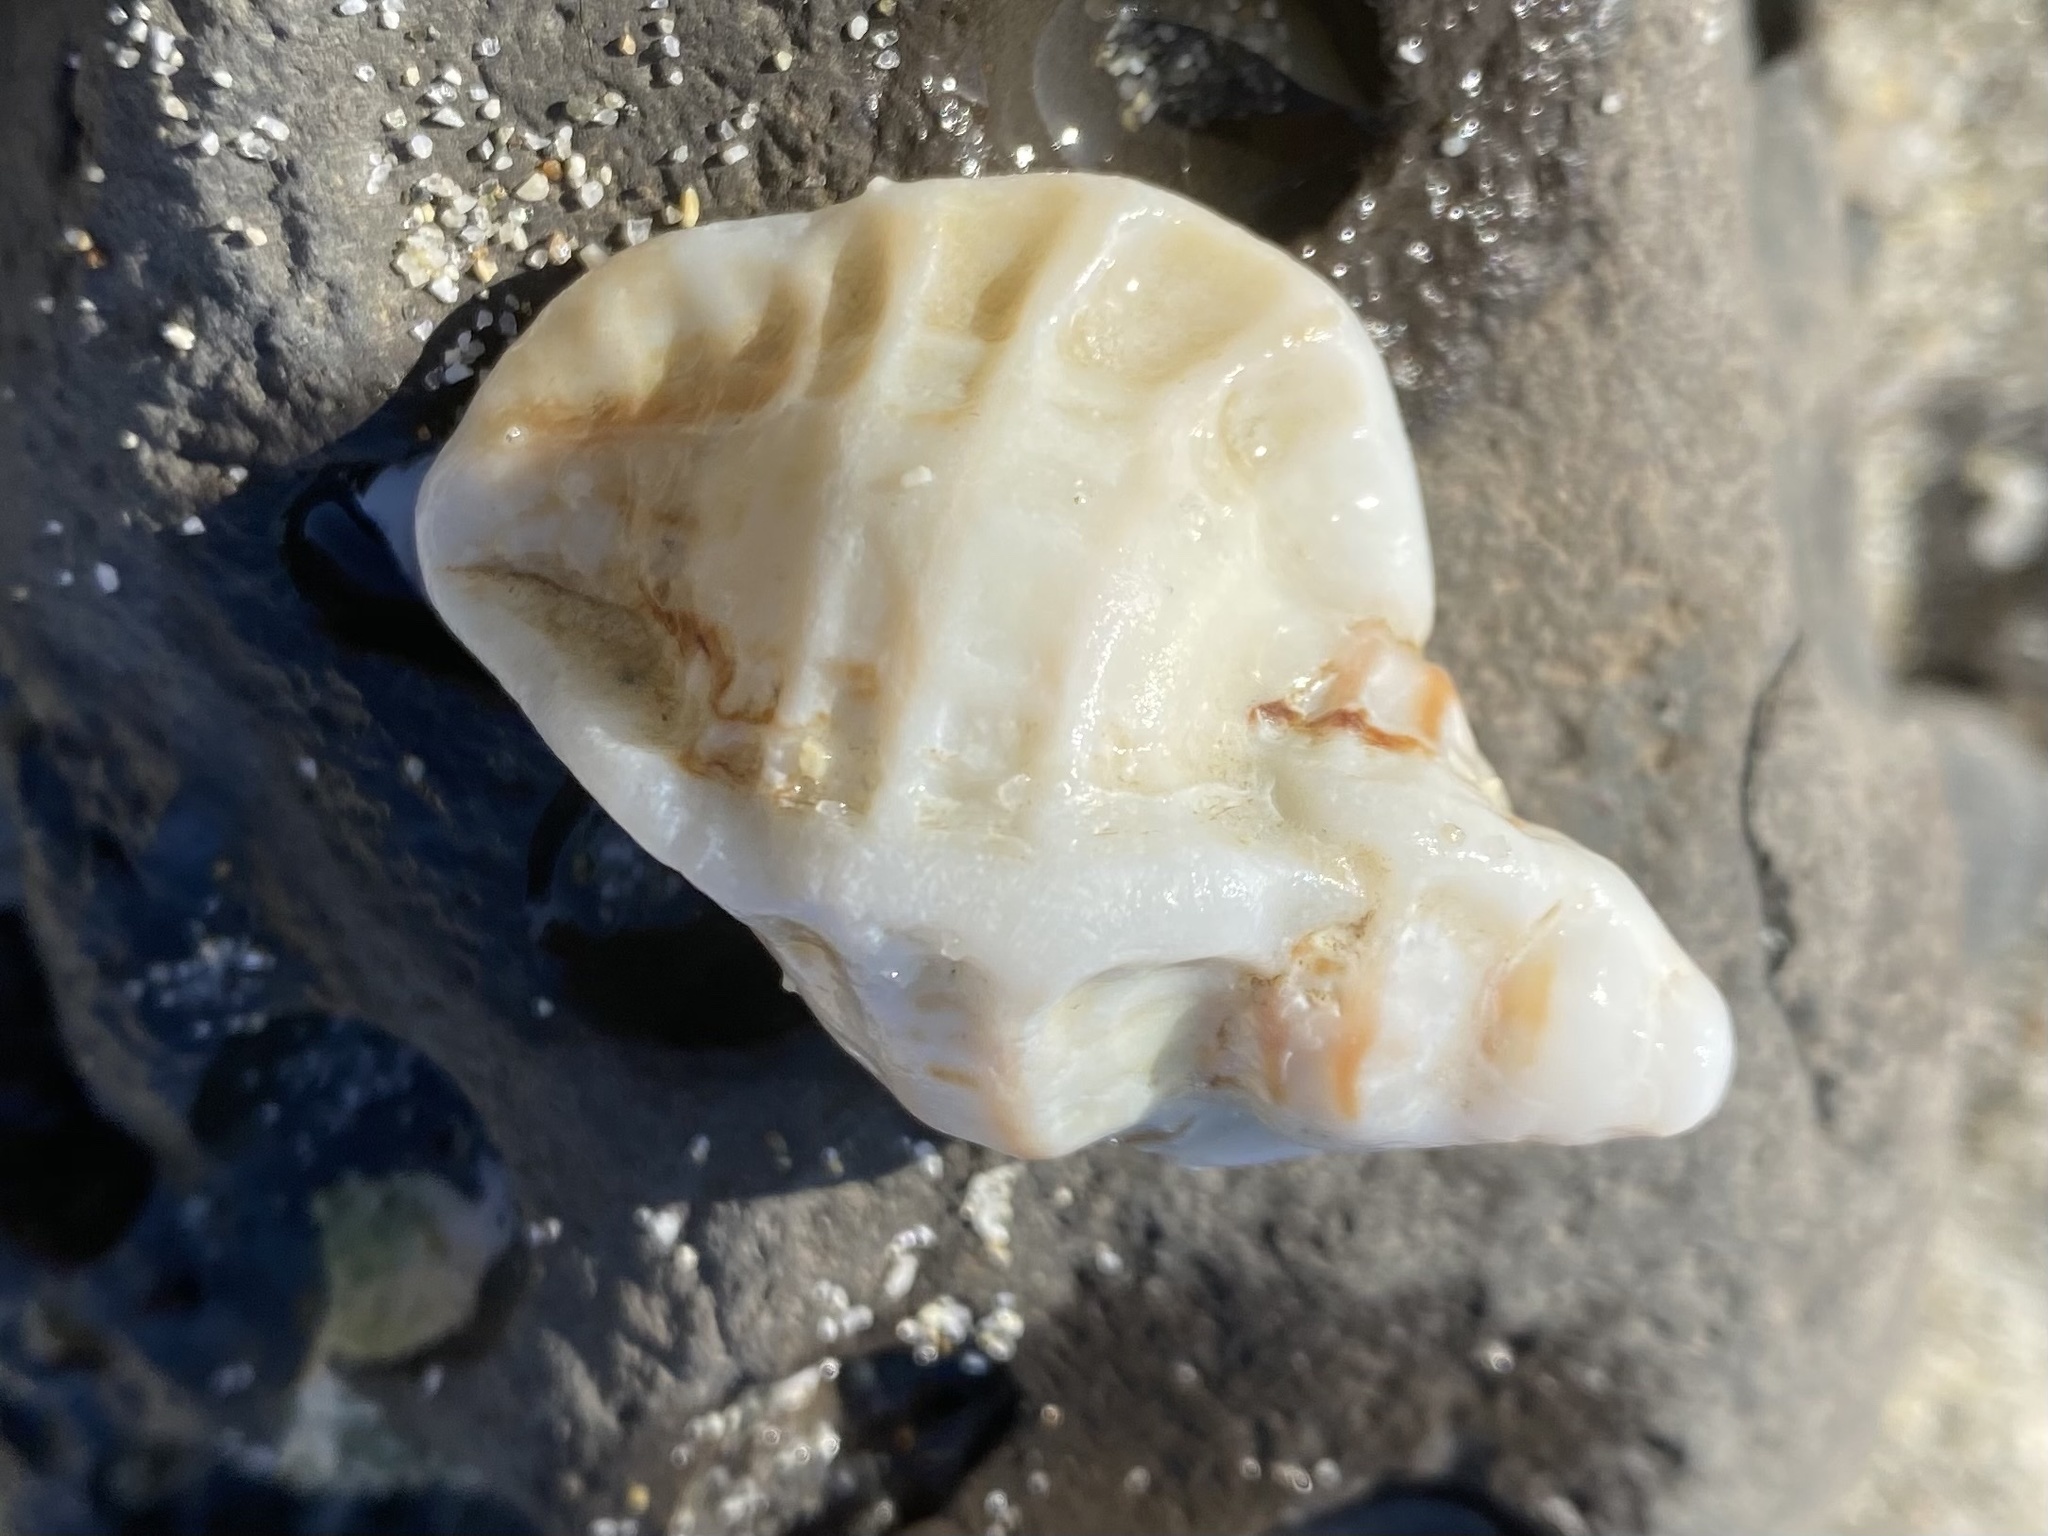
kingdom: Animalia
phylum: Mollusca
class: Gastropoda
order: Neogastropoda
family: Muricidae
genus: Ceratostoma
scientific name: Ceratostoma foliatum
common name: Foliate thorn purpura
